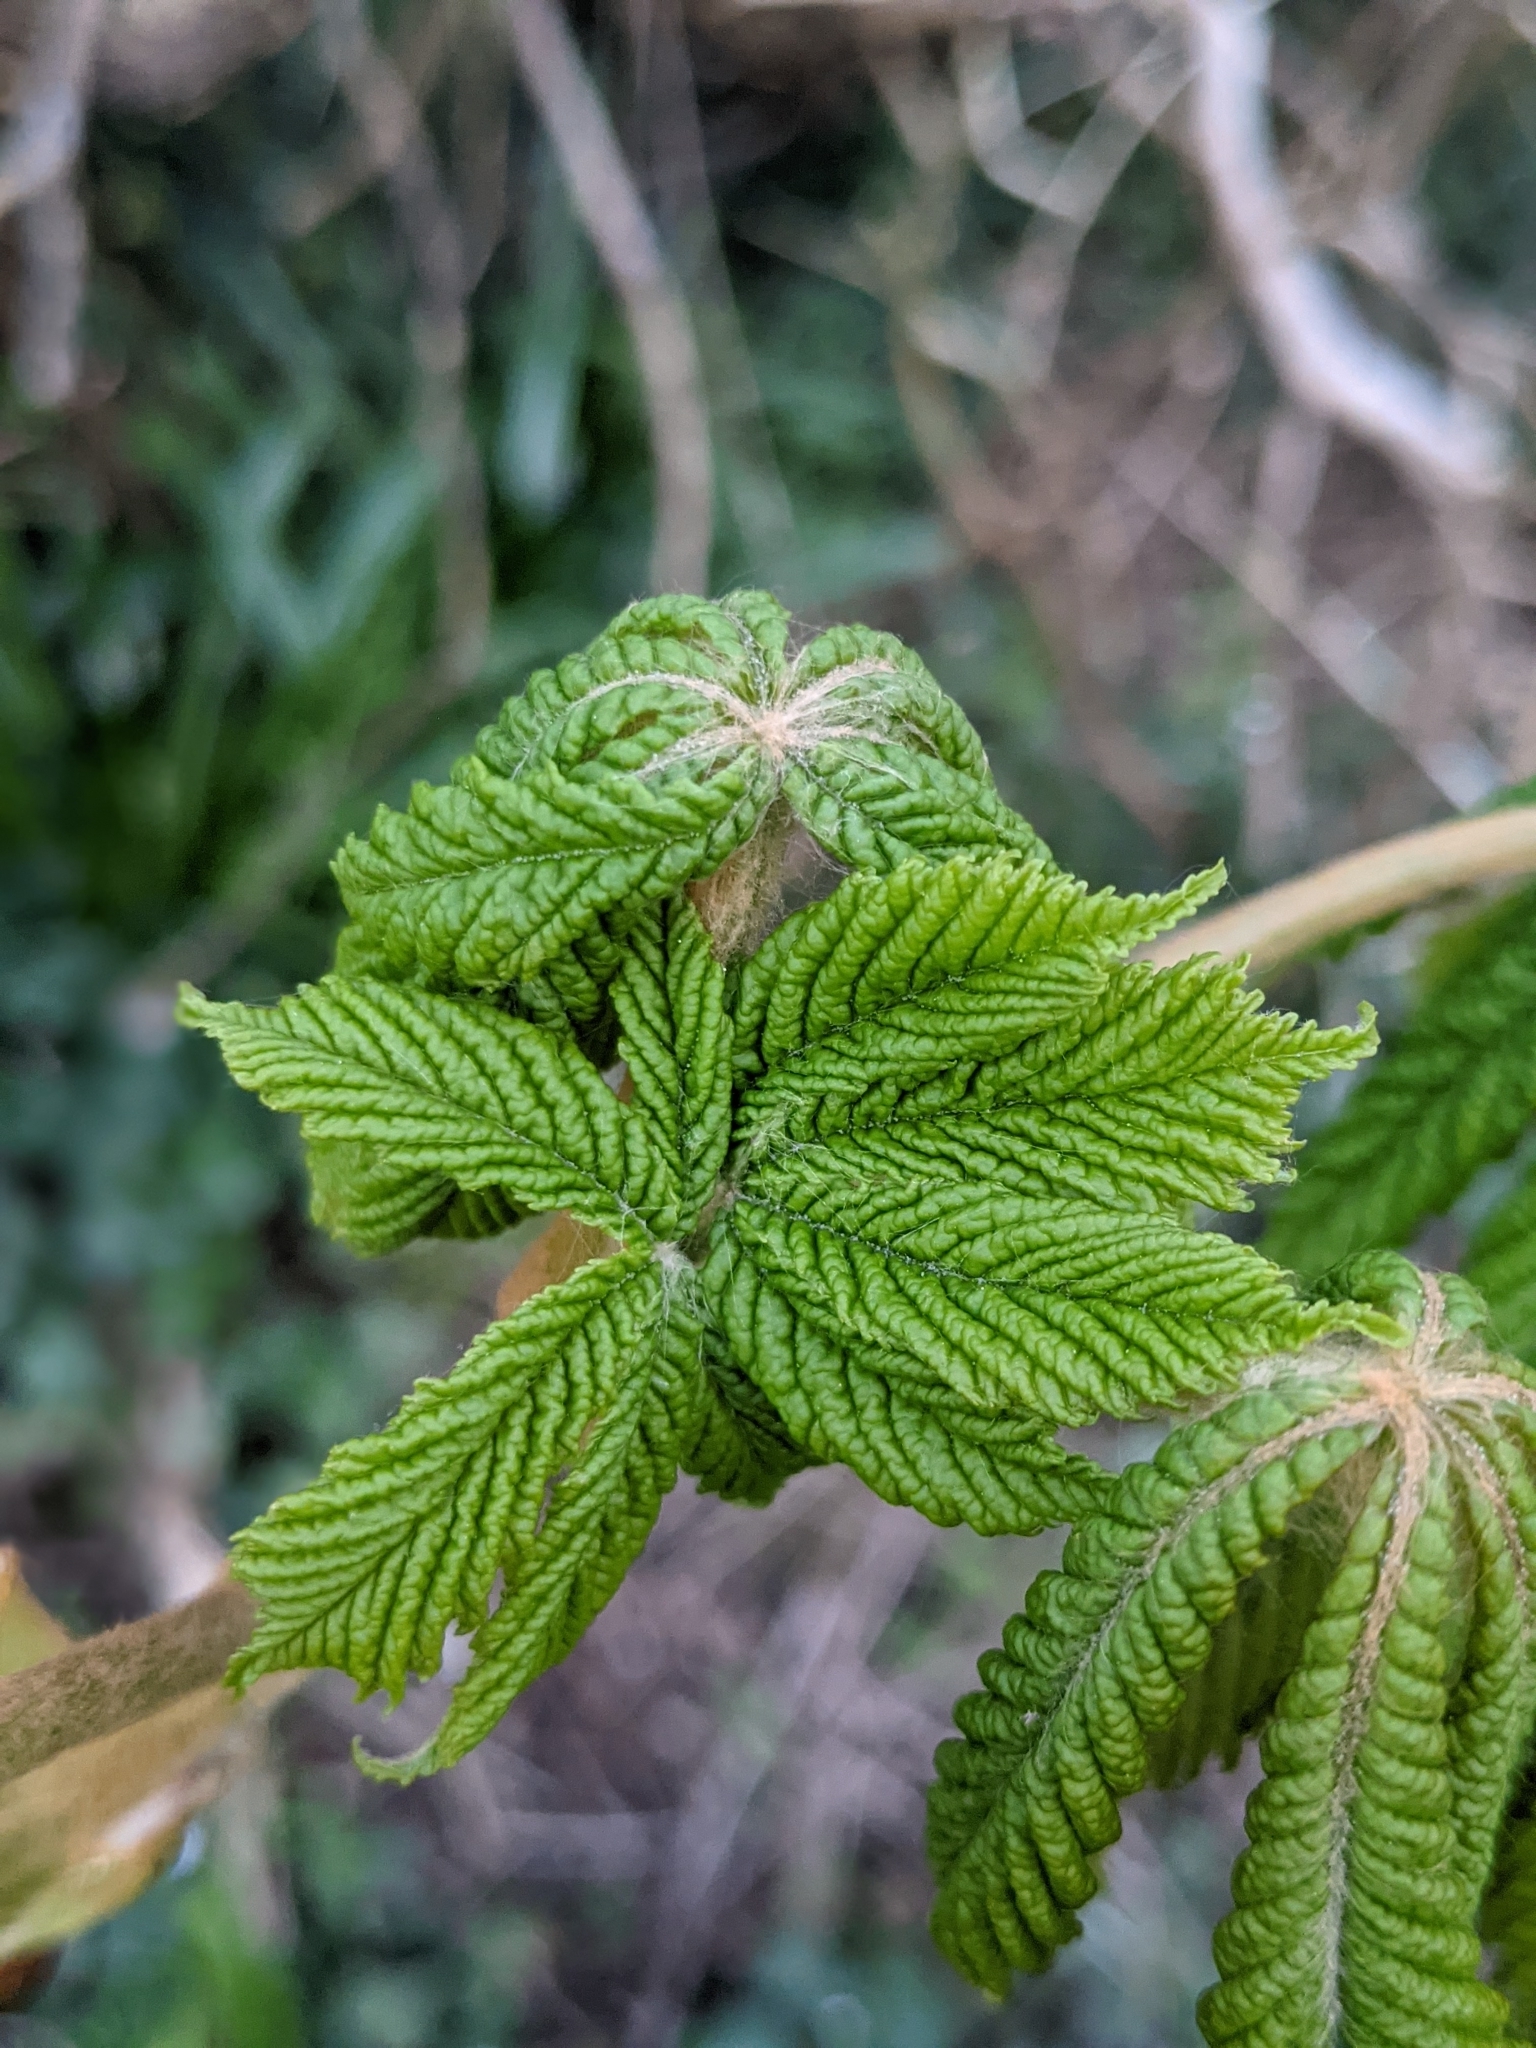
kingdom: Plantae
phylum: Tracheophyta
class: Magnoliopsida
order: Sapindales
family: Sapindaceae
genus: Aesculus
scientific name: Aesculus hippocastanum
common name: Horse-chestnut
